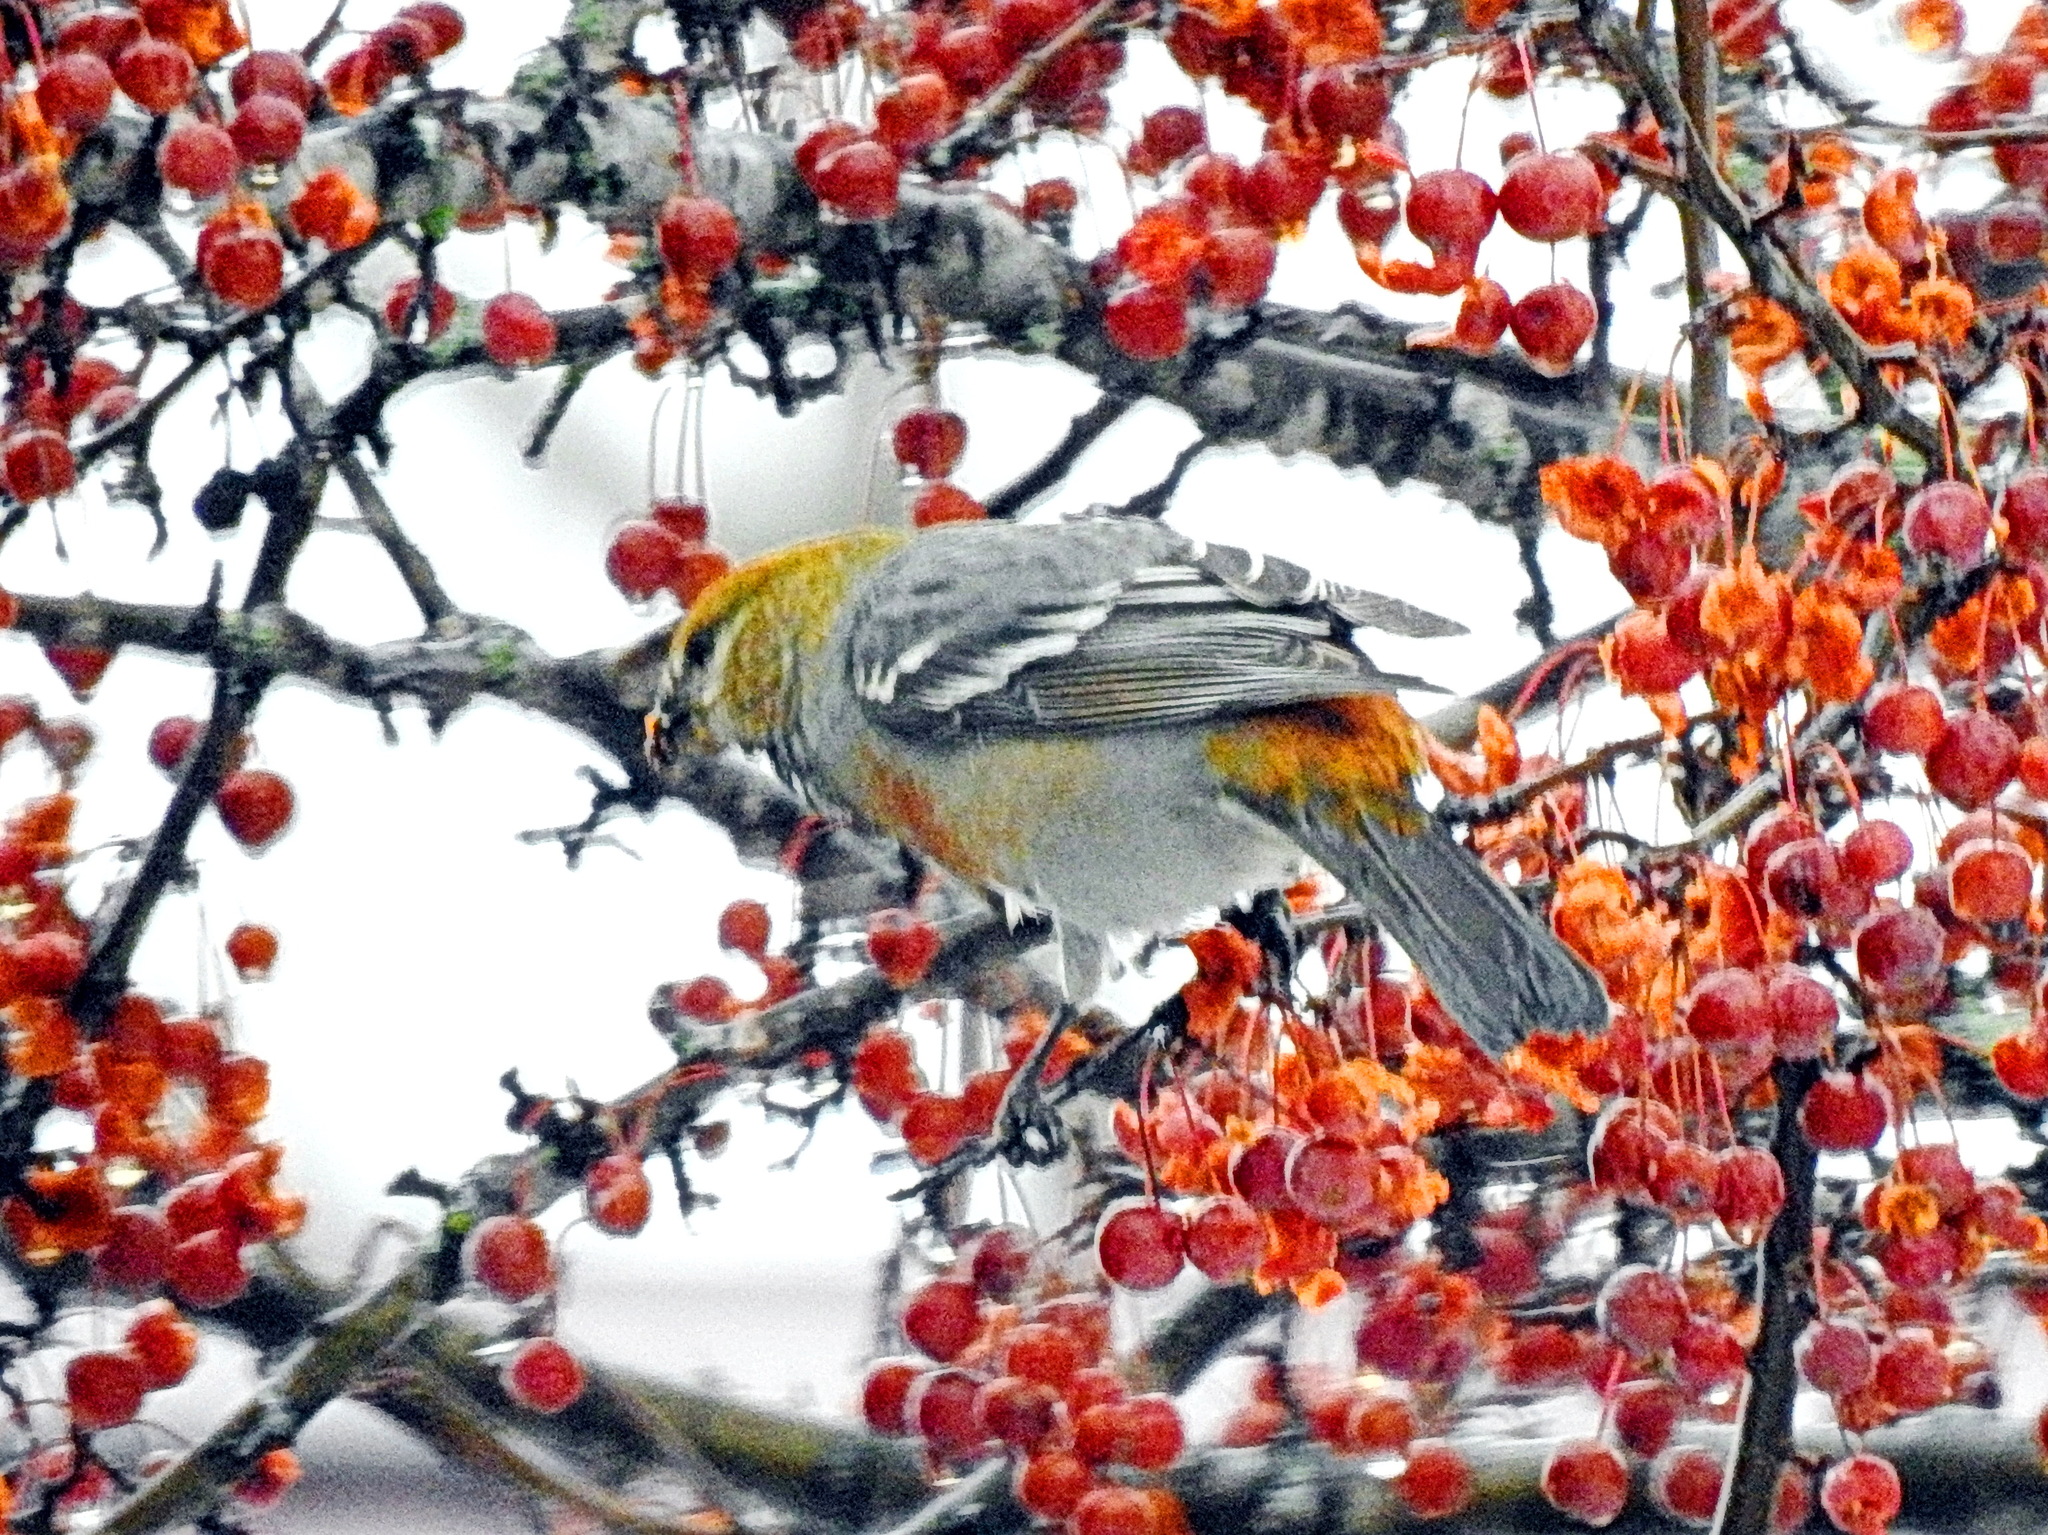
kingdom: Animalia
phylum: Chordata
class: Aves
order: Passeriformes
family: Fringillidae
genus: Pinicola
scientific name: Pinicola enucleator
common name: Pine grosbeak
